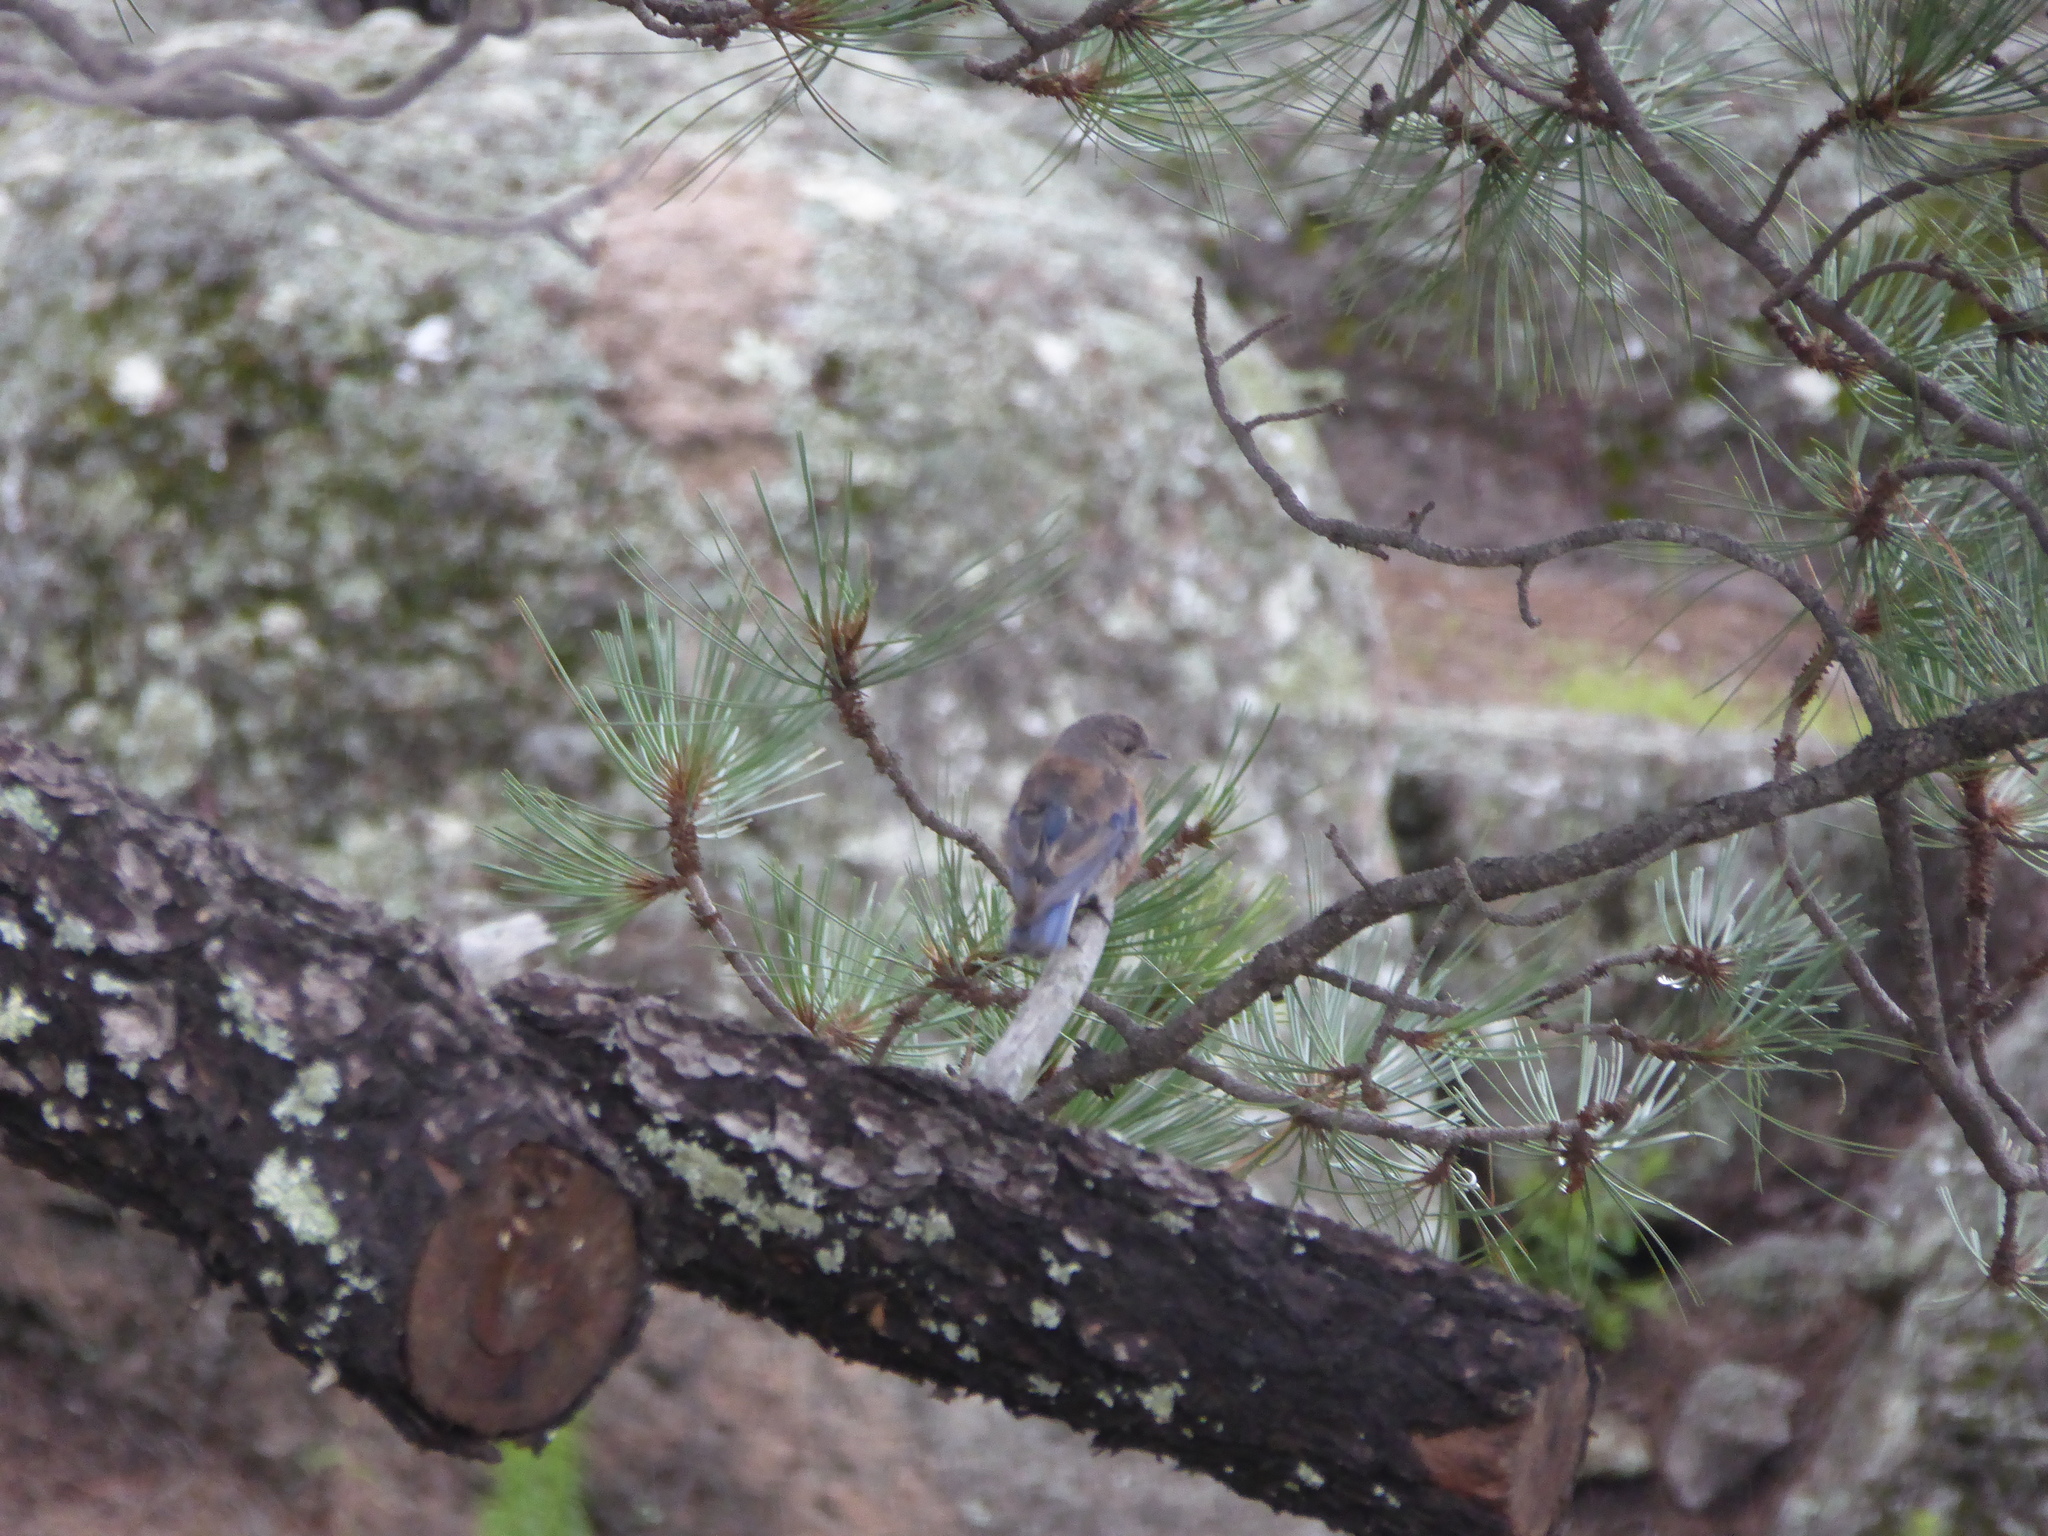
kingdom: Animalia
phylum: Chordata
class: Aves
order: Passeriformes
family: Turdidae
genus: Sialia
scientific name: Sialia mexicana
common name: Western bluebird
